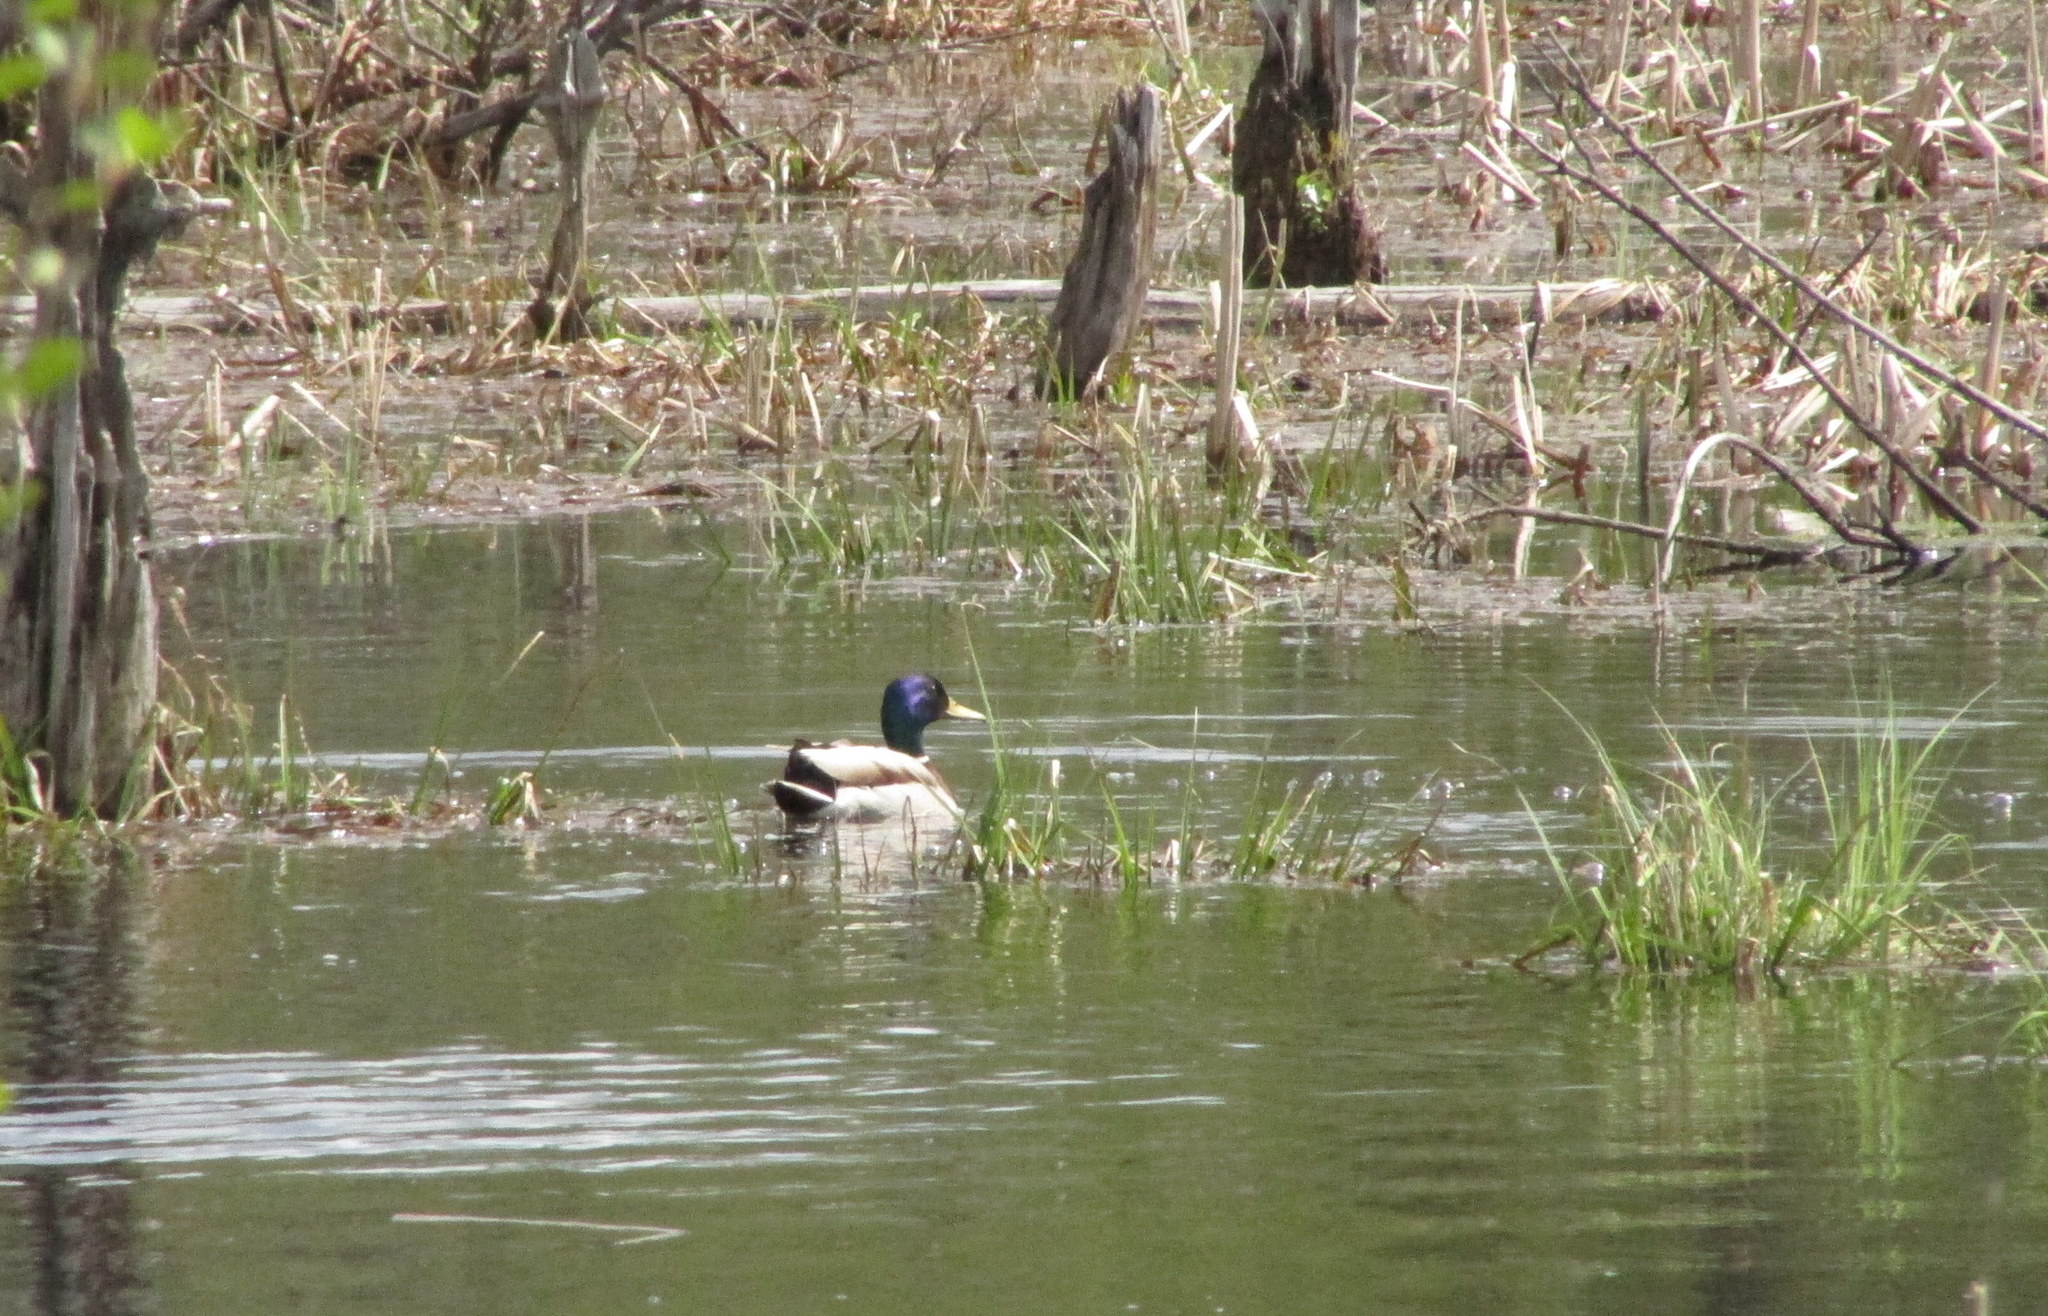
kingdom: Animalia
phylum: Chordata
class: Aves
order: Anseriformes
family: Anatidae
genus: Anas
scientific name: Anas platyrhynchos
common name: Mallard
